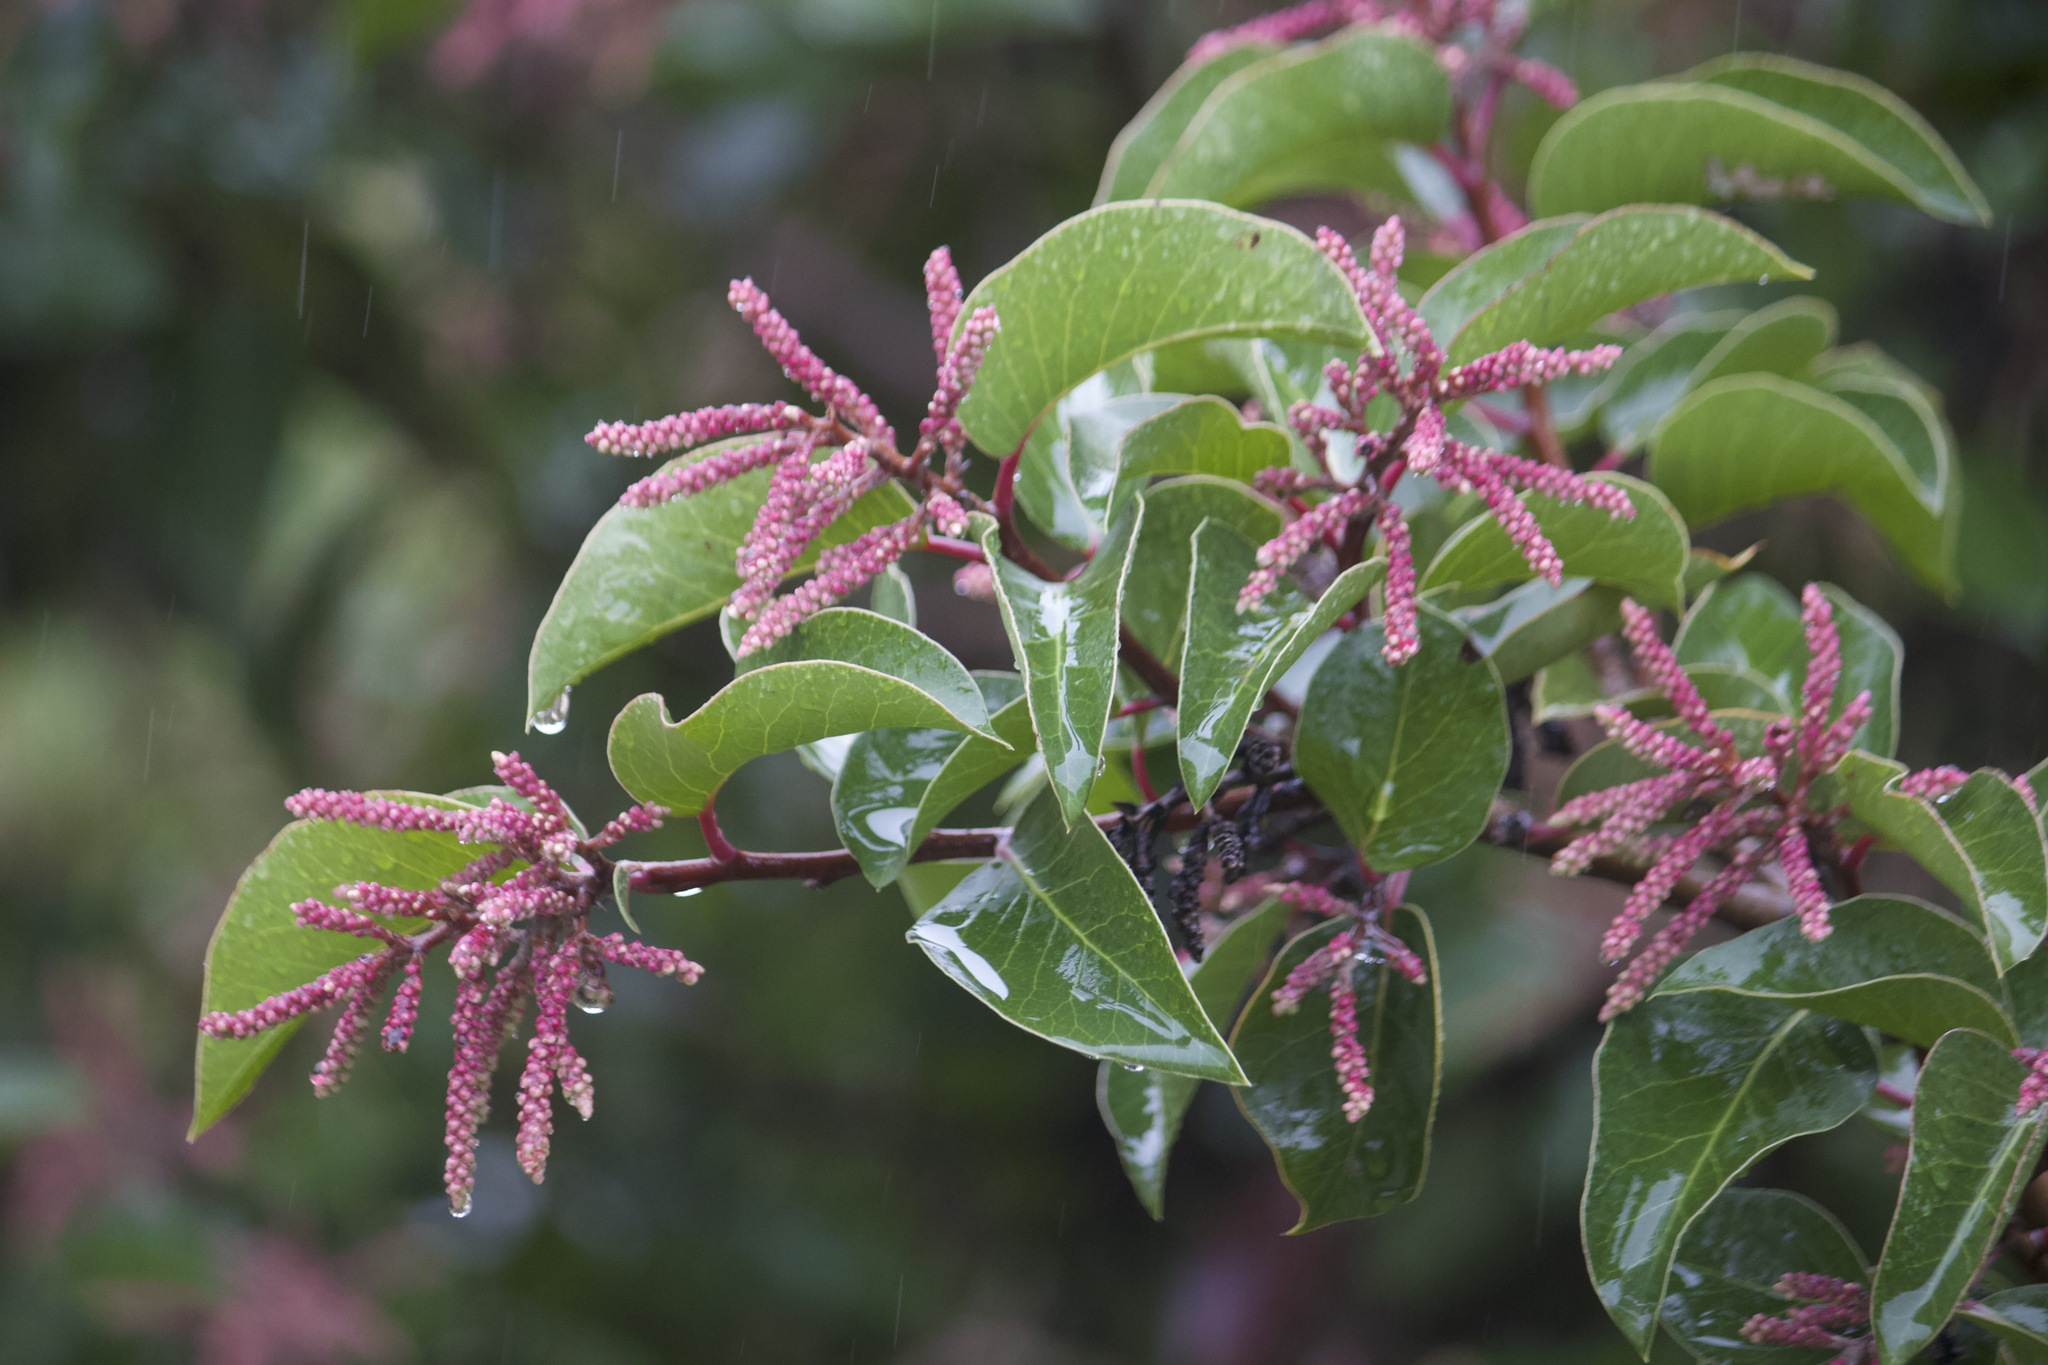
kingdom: Plantae
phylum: Tracheophyta
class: Magnoliopsida
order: Sapindales
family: Anacardiaceae
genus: Rhus
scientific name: Rhus ovata
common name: Sugar sumac
